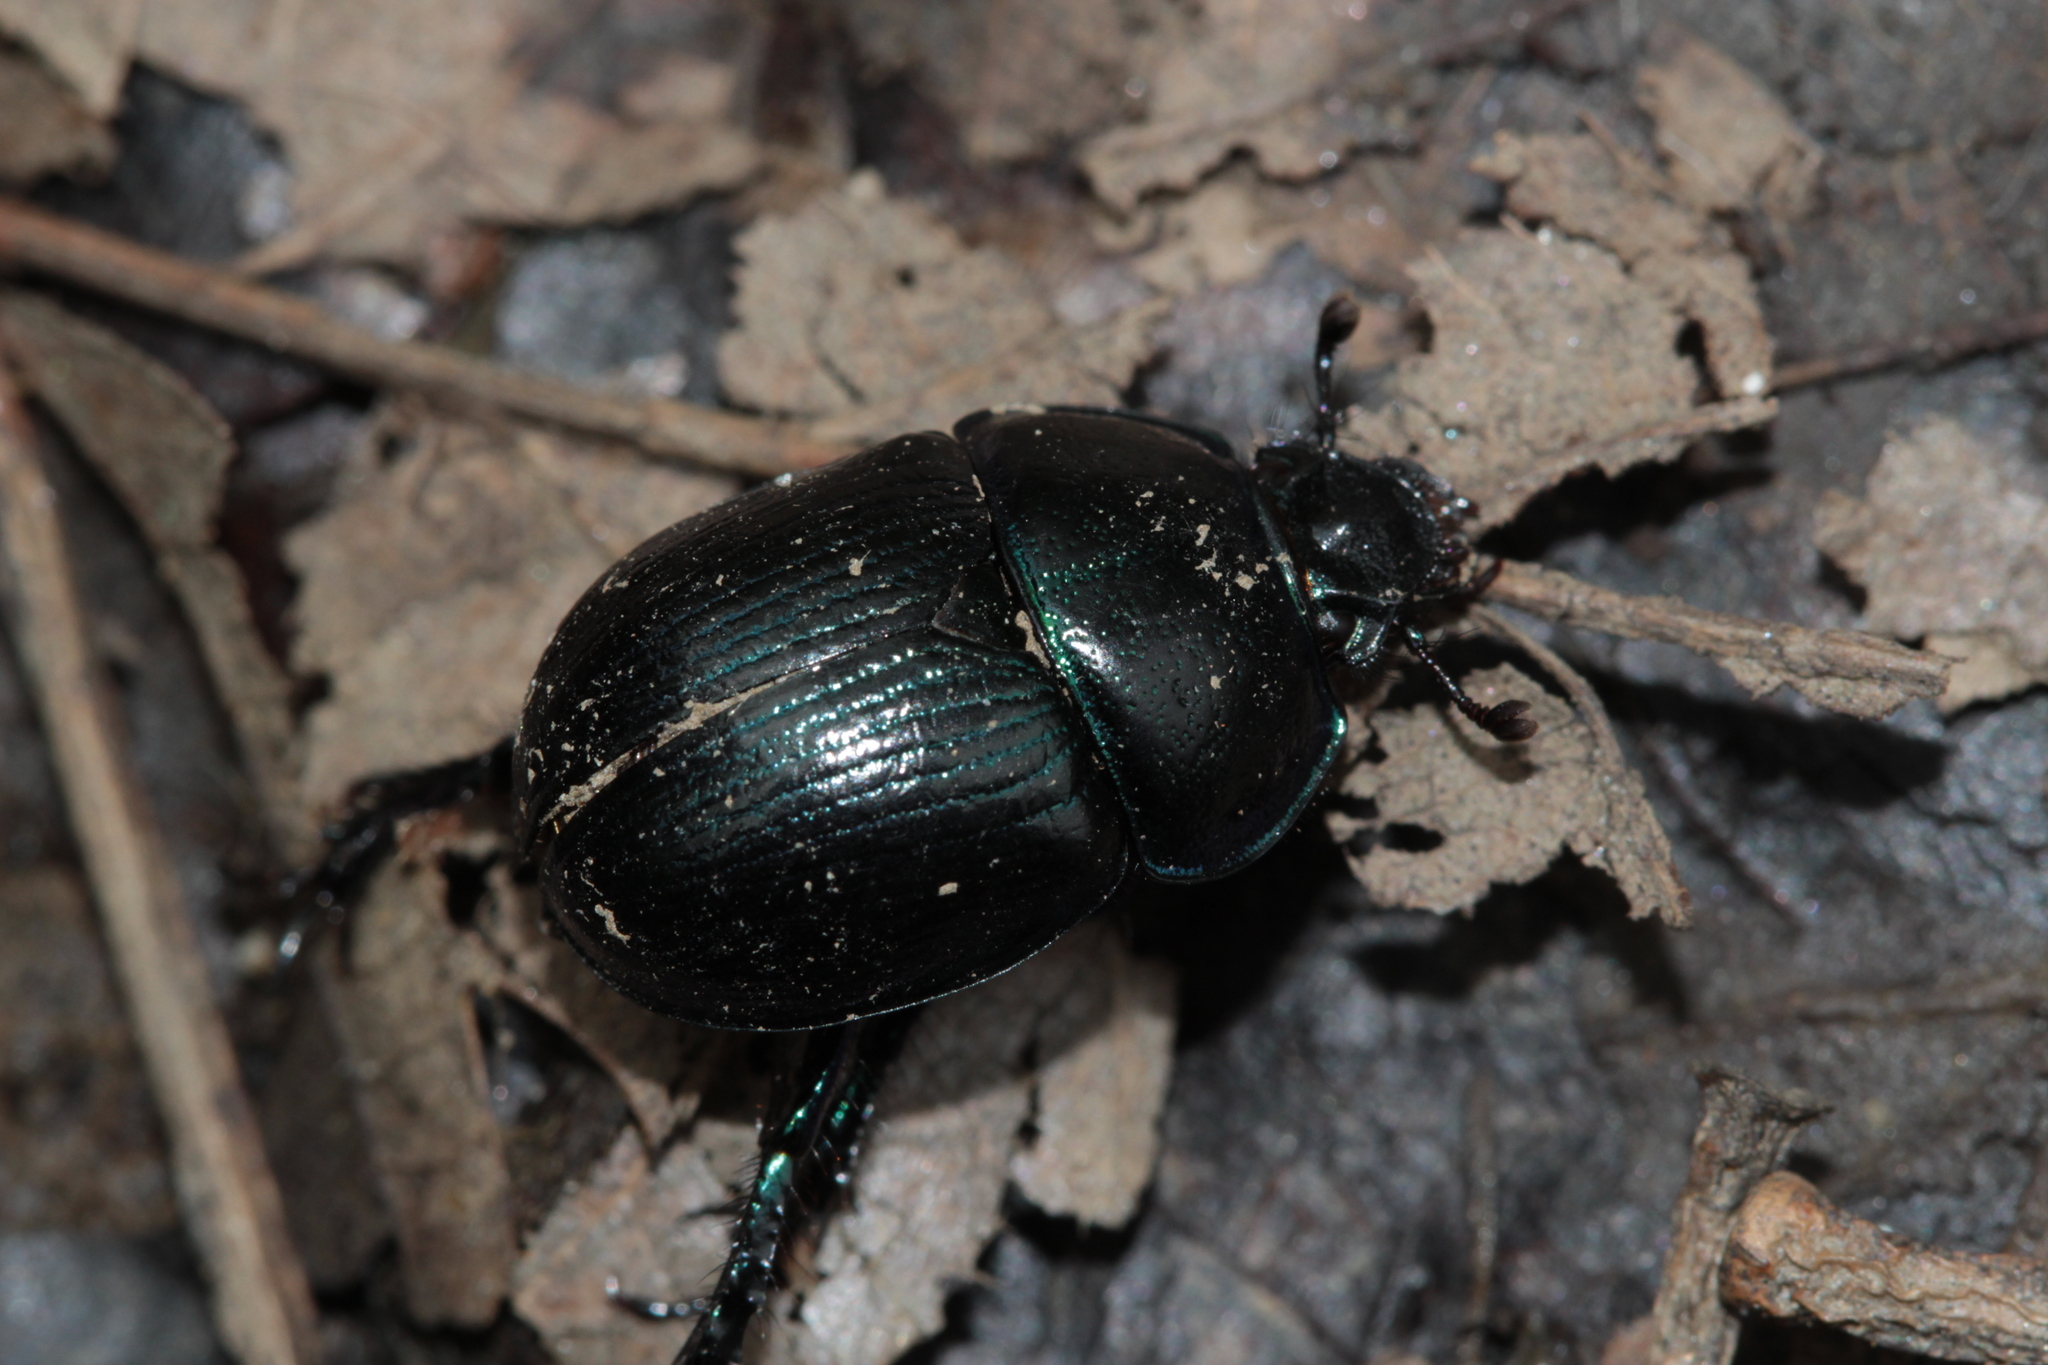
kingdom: Animalia
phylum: Arthropoda
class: Insecta
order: Coleoptera
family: Geotrupidae
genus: Anoplotrupes
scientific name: Anoplotrupes stercorosus
